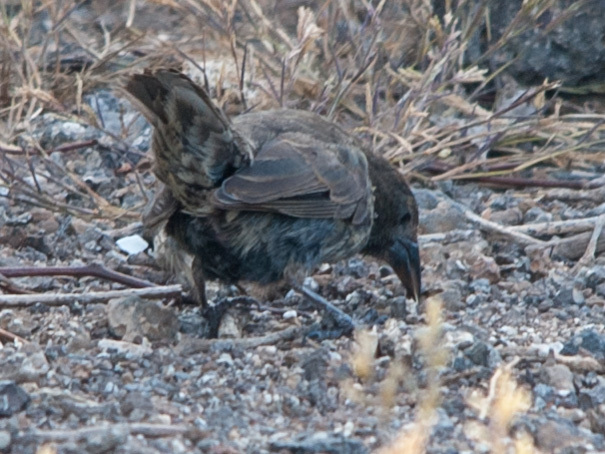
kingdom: Animalia
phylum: Chordata
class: Aves
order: Passeriformes
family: Thraupidae
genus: Geospiza
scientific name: Geospiza scandens
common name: Common cactus-finch
